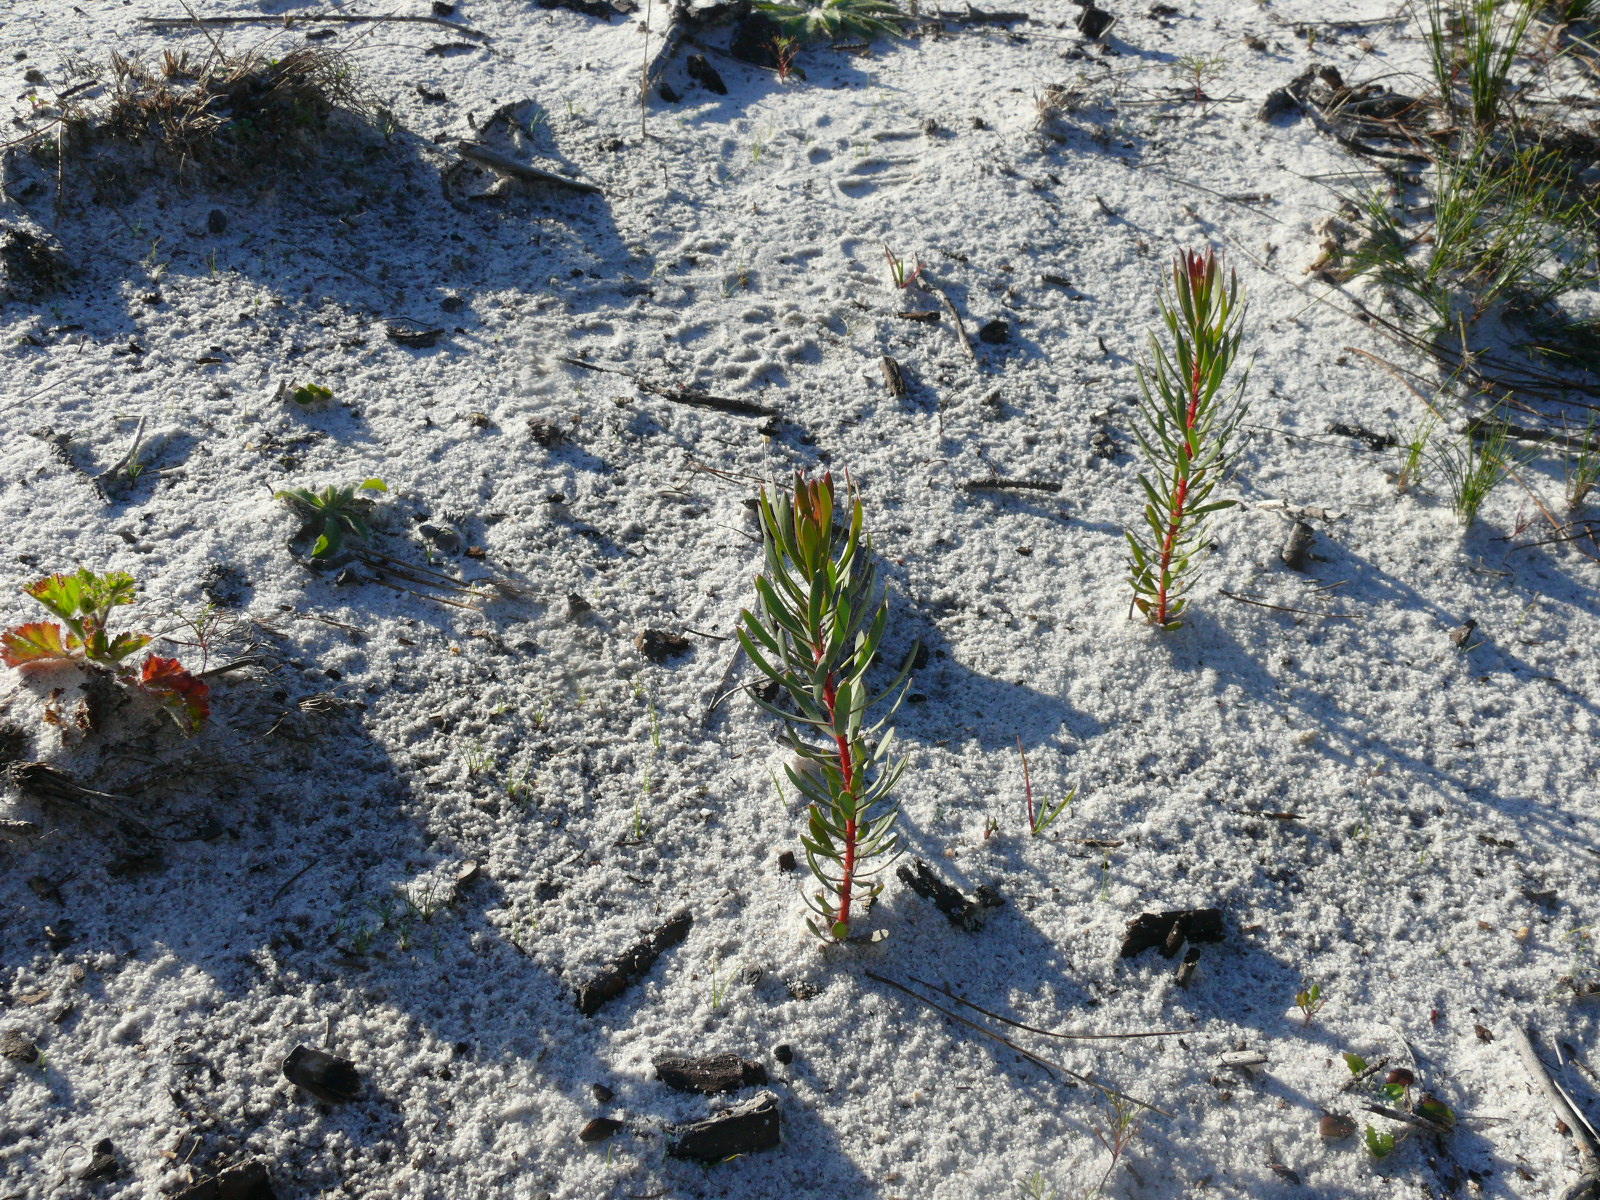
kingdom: Plantae
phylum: Tracheophyta
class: Magnoliopsida
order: Proteales
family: Proteaceae
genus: Protea
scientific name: Protea scolymocephala
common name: Thistle sugarbush
